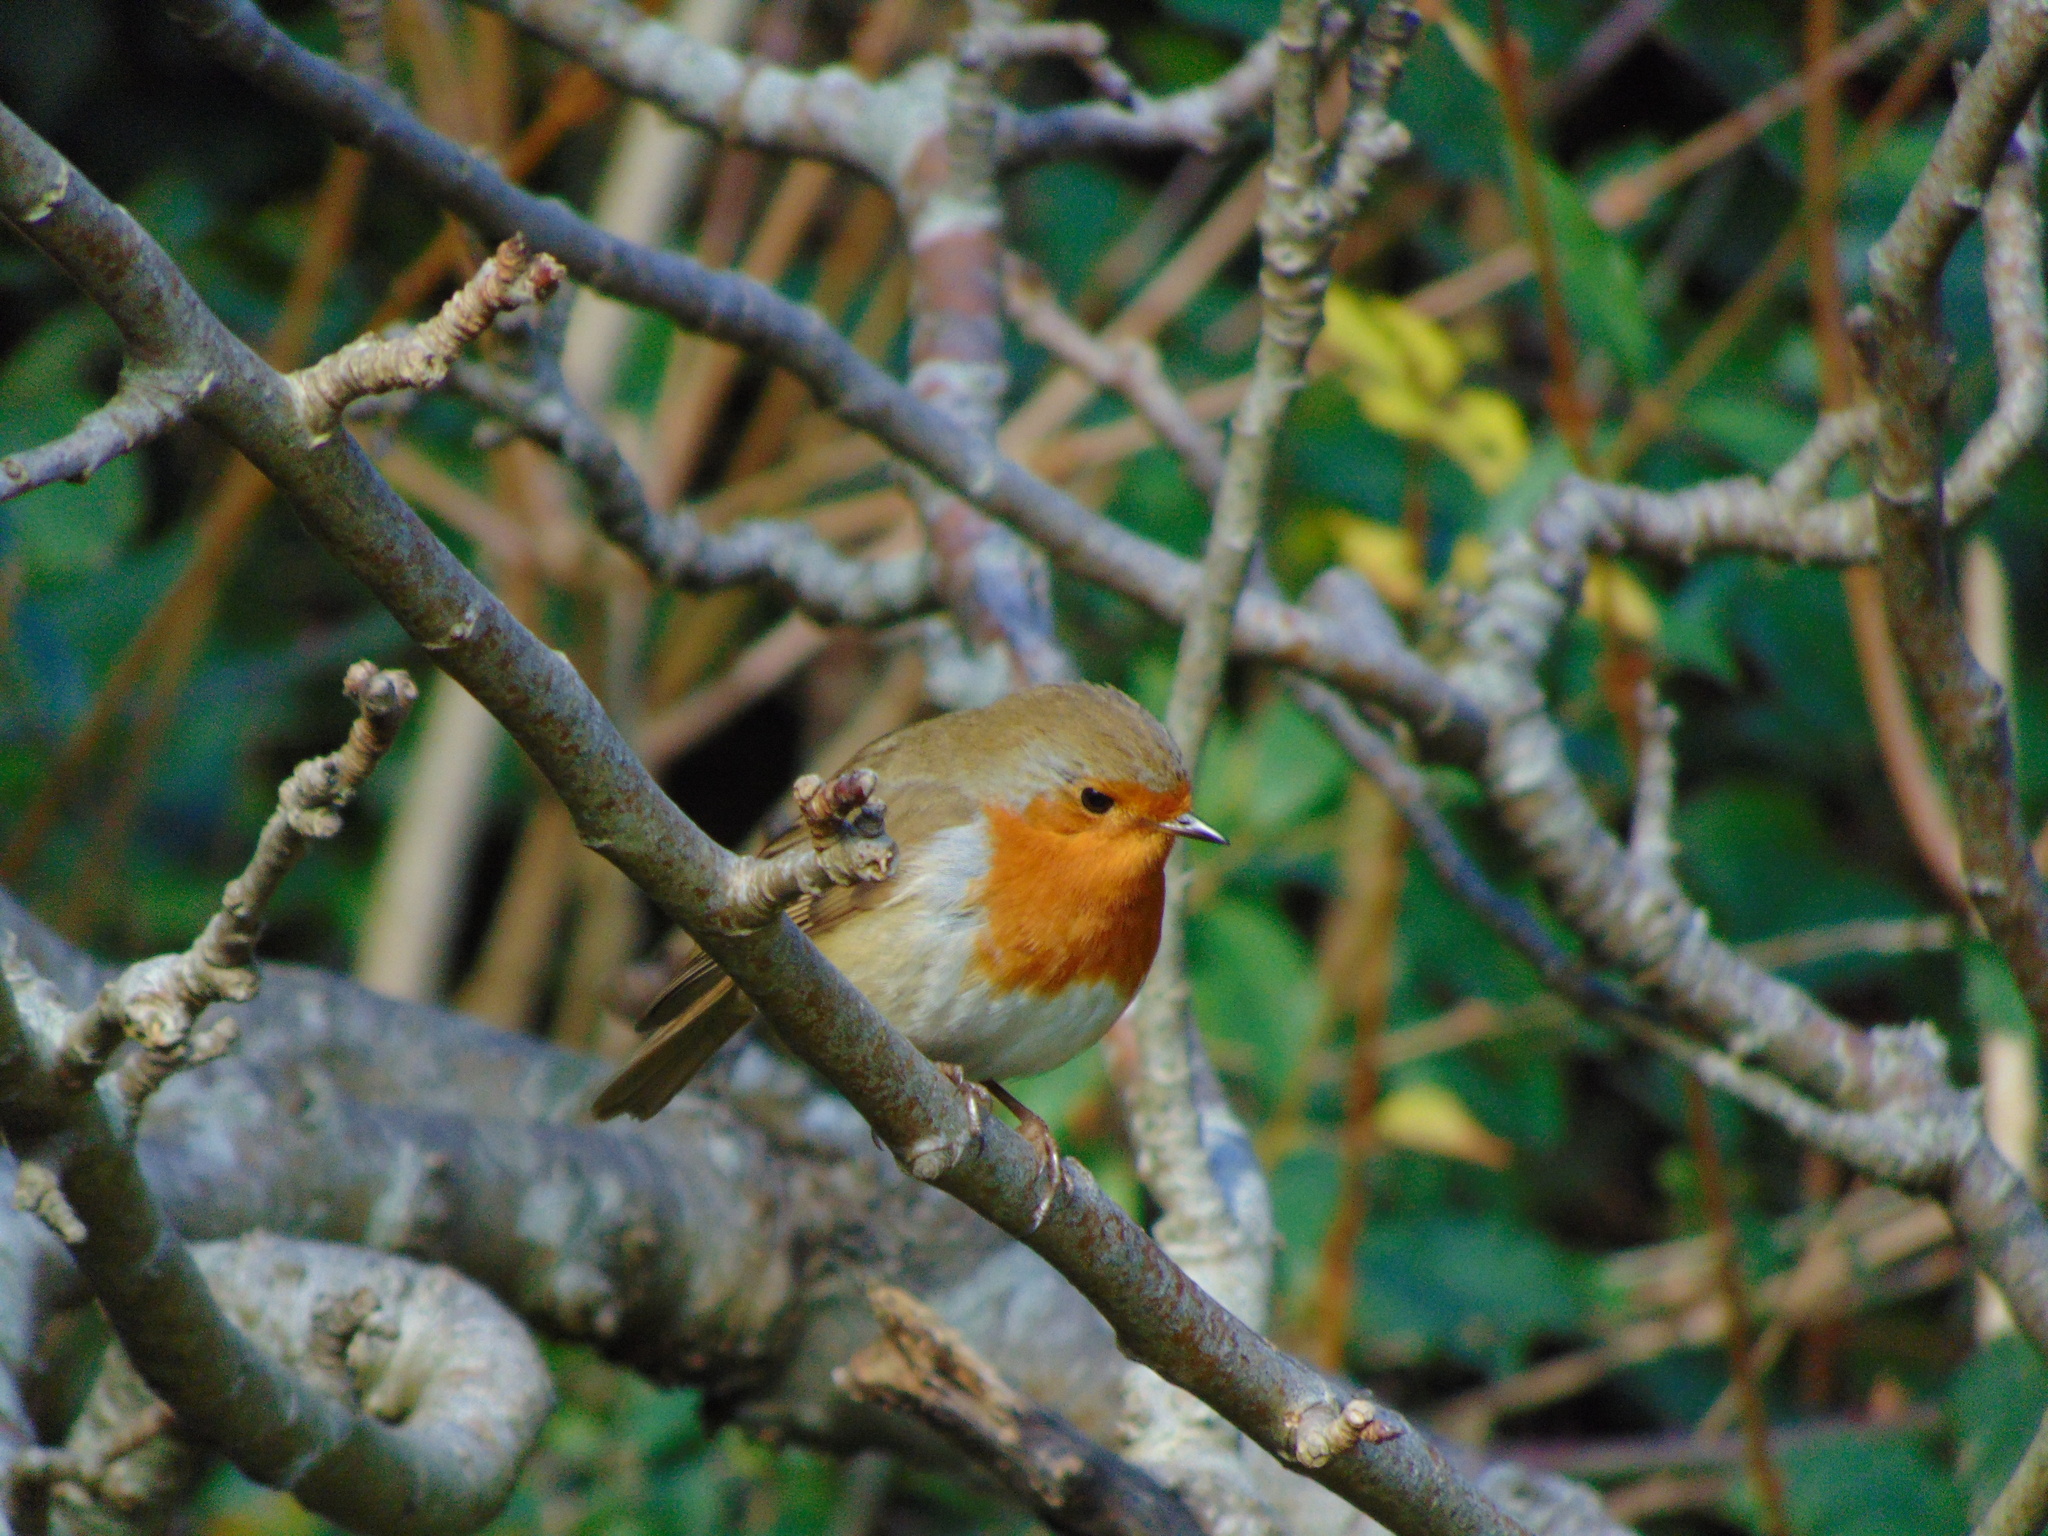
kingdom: Animalia
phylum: Chordata
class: Aves
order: Passeriformes
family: Muscicapidae
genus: Erithacus
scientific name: Erithacus rubecula
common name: European robin
